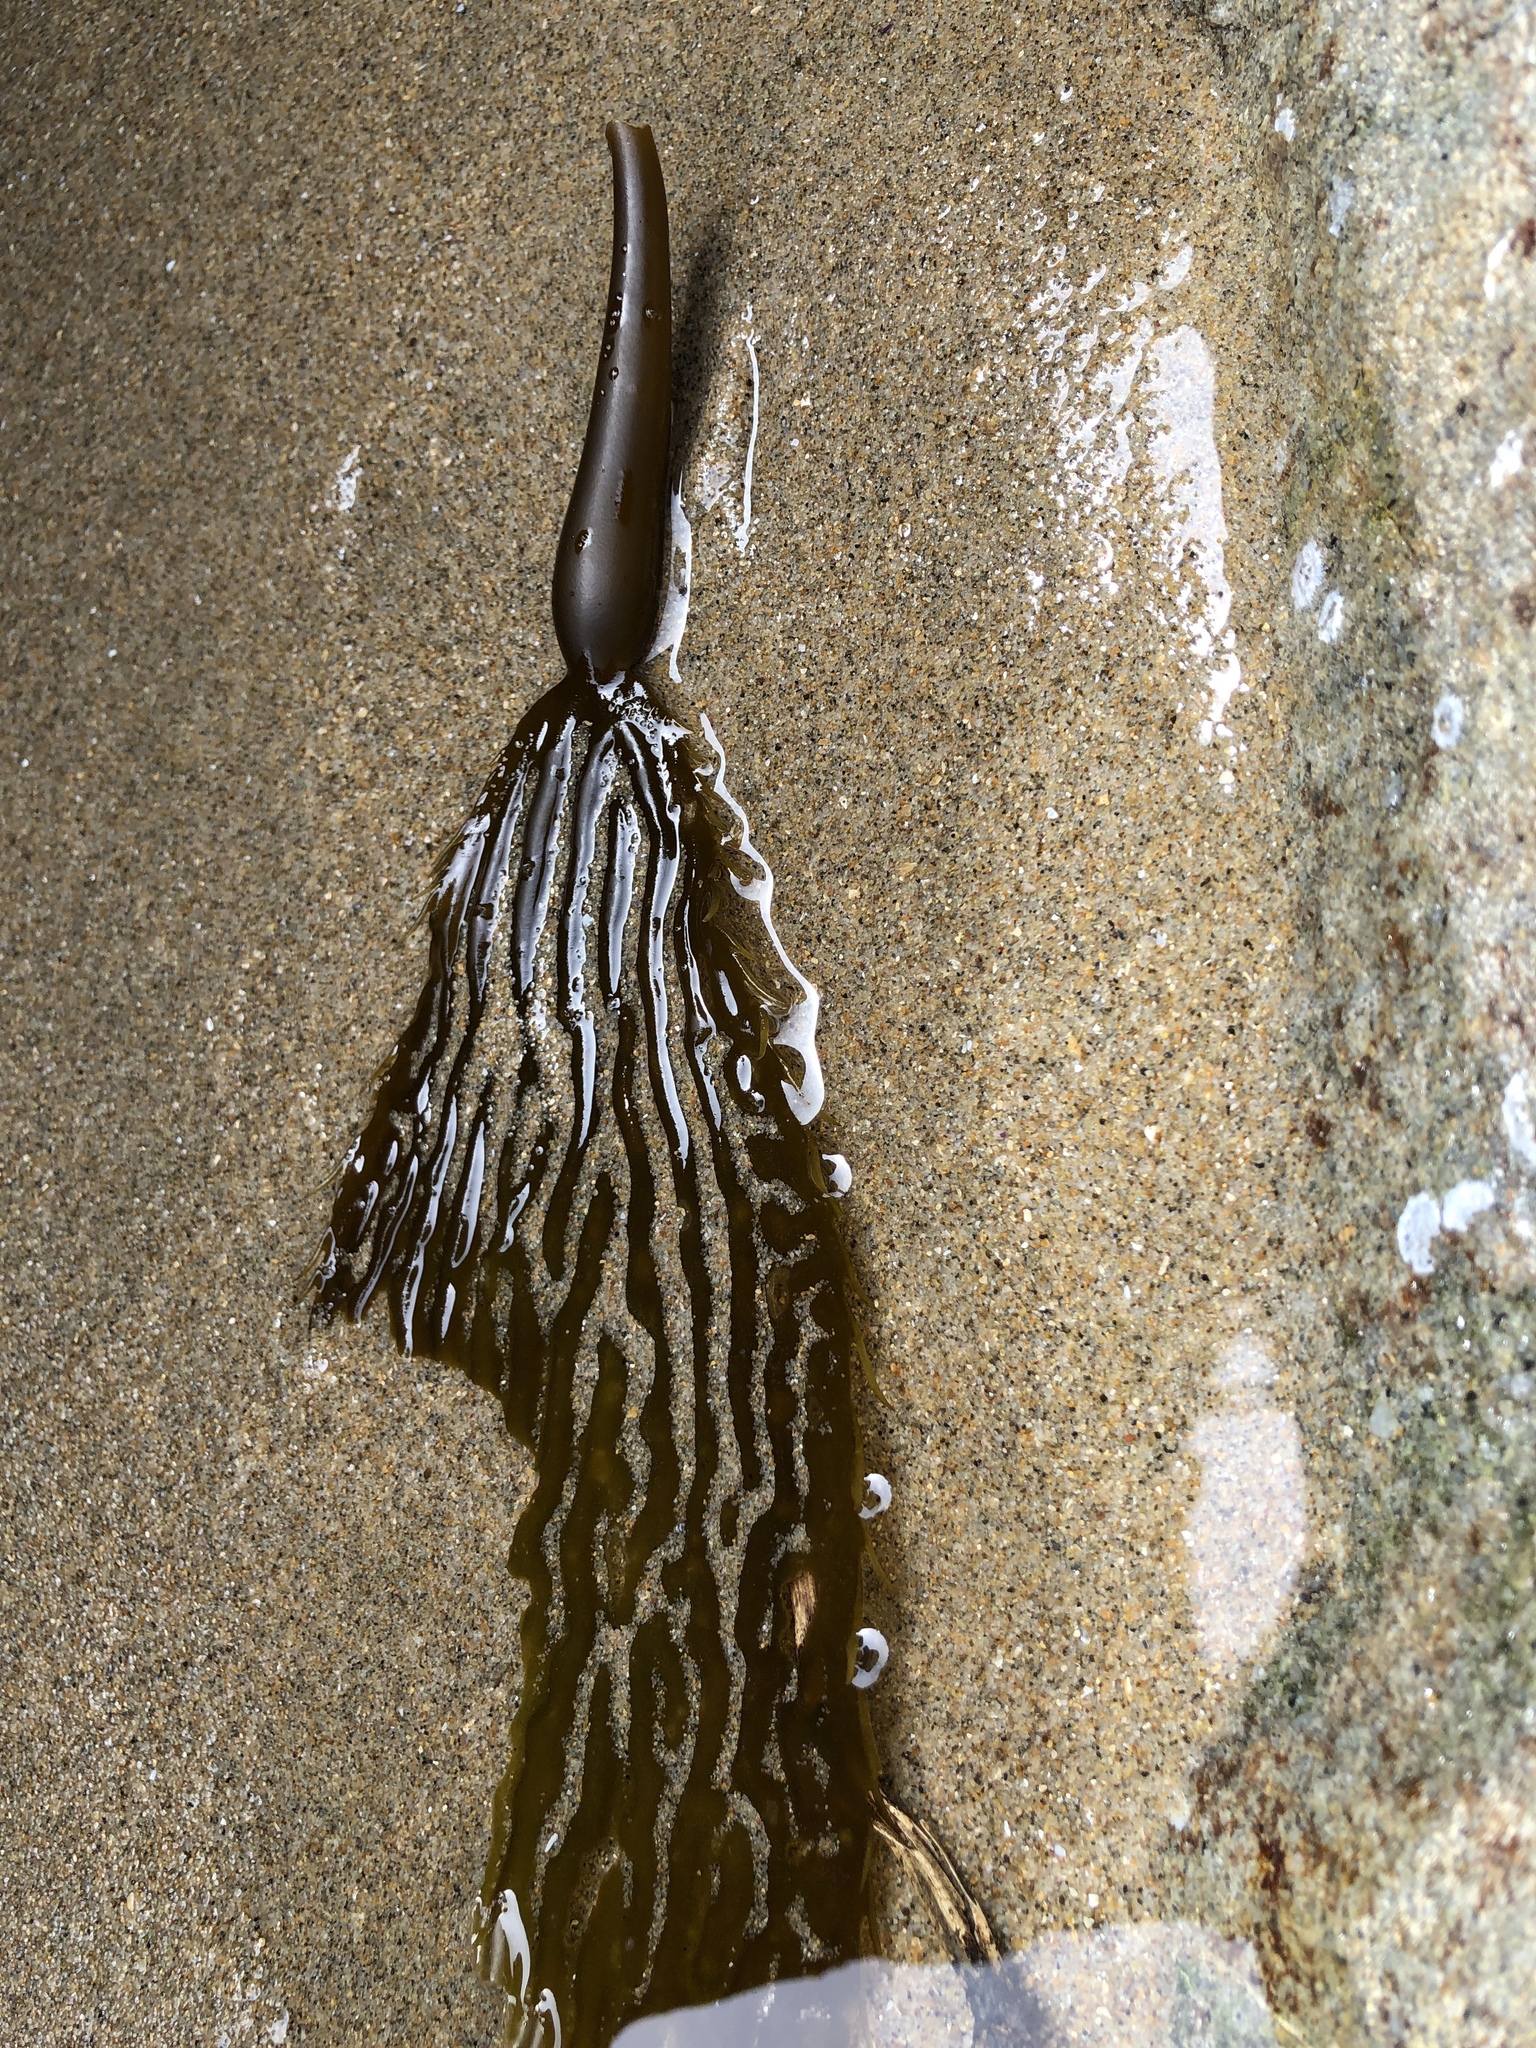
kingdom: Chromista
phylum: Ochrophyta
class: Phaeophyceae
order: Laminariales
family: Laminariaceae
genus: Macrocystis
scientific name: Macrocystis pyrifera
